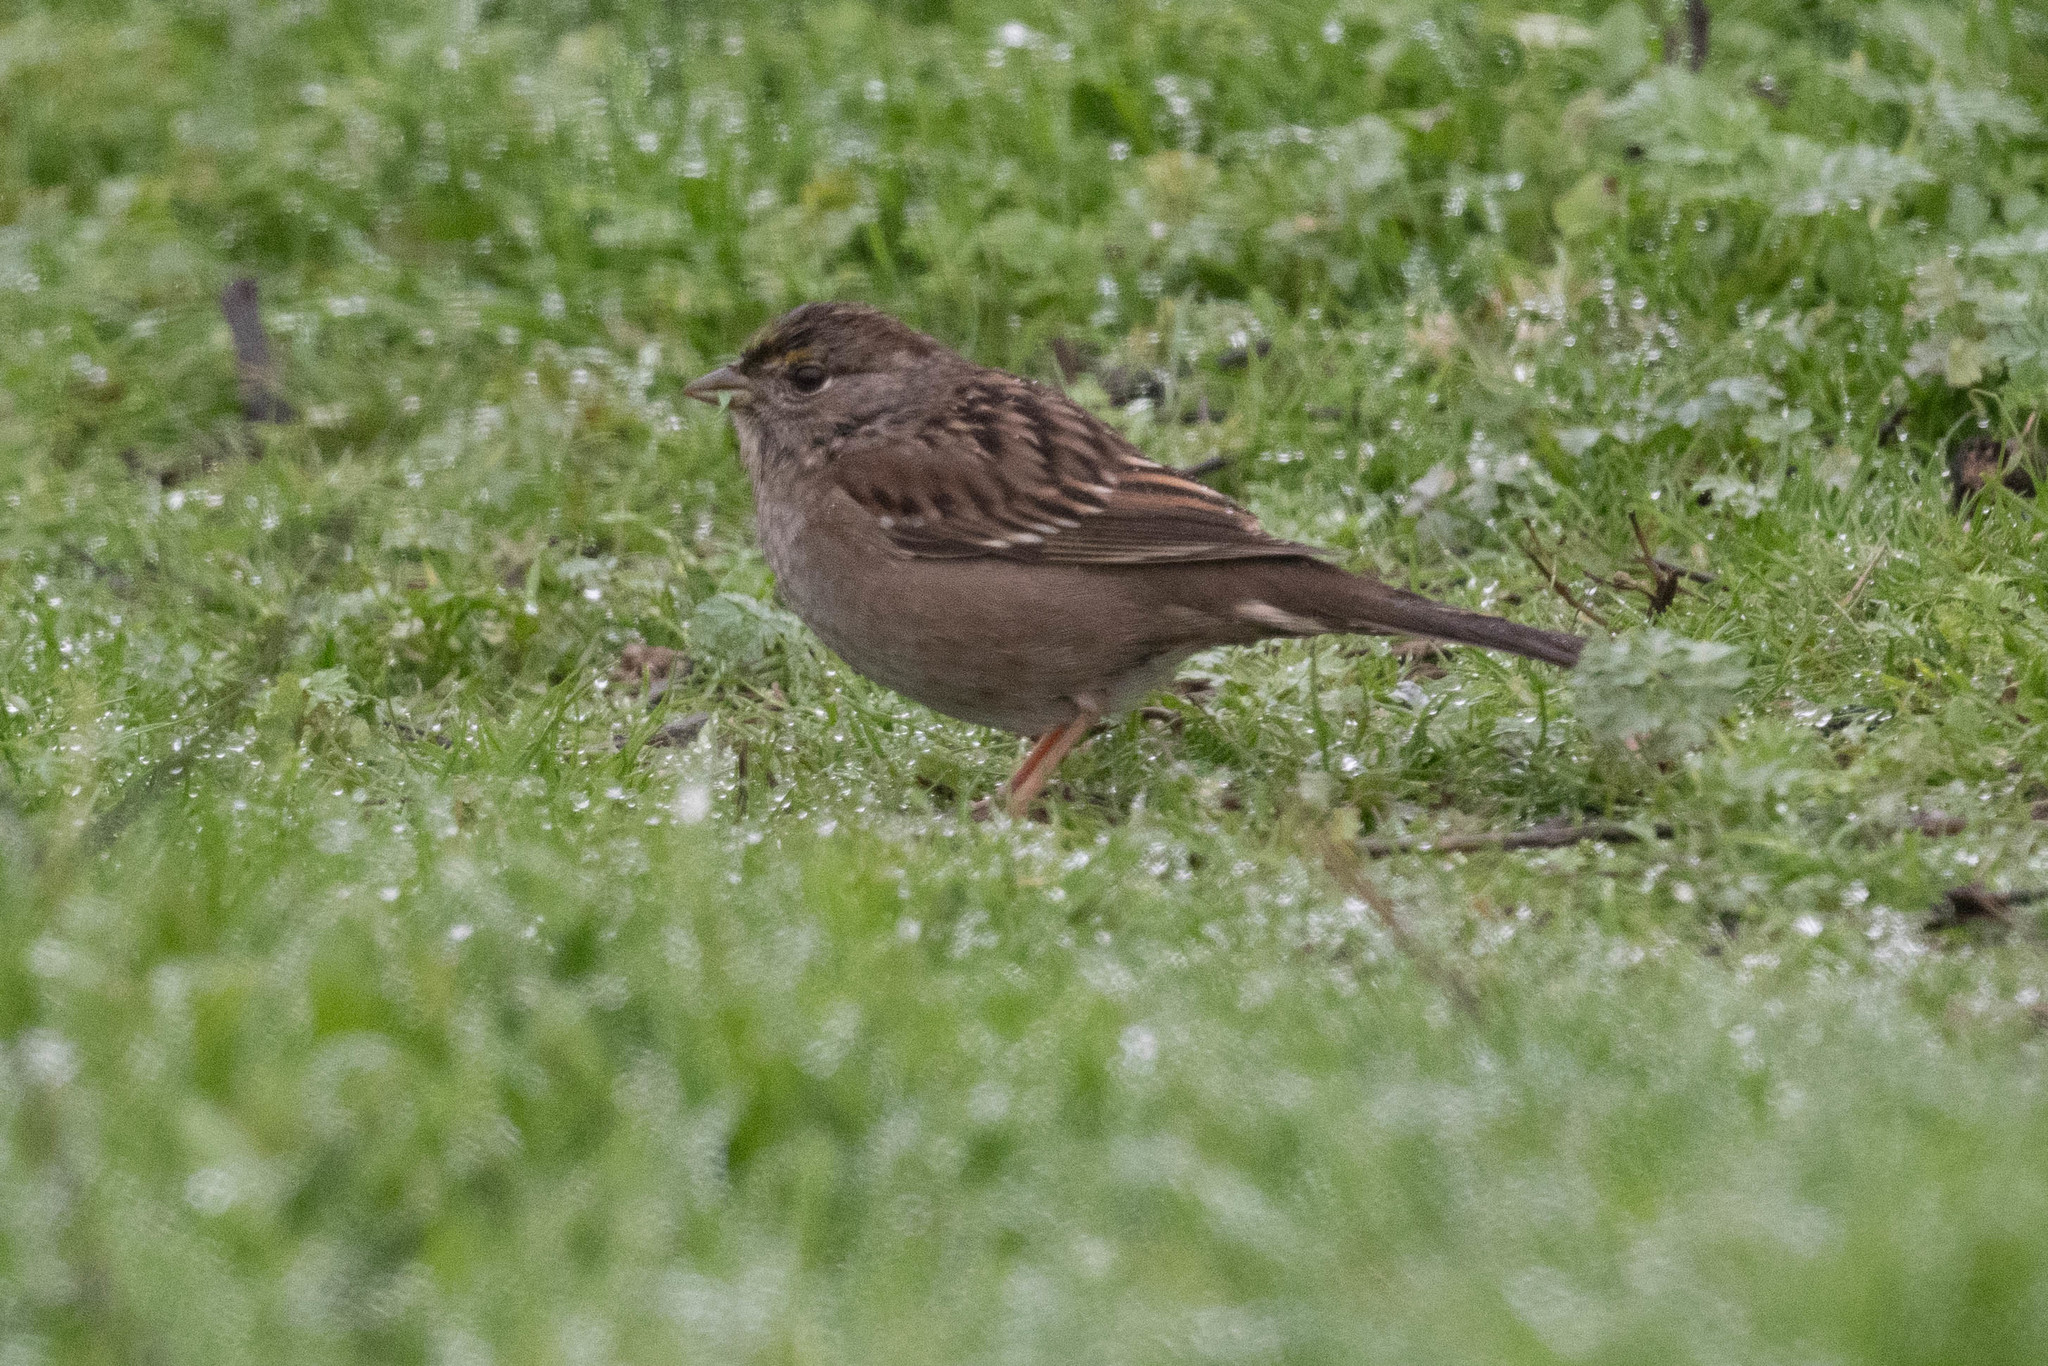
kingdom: Animalia
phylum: Chordata
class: Aves
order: Passeriformes
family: Passerellidae
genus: Zonotrichia
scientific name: Zonotrichia atricapilla
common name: Golden-crowned sparrow
